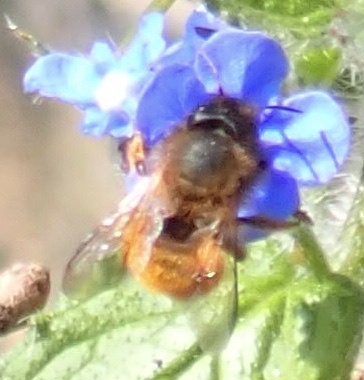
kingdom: Animalia
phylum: Arthropoda
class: Insecta
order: Hymenoptera
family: Megachilidae
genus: Osmia
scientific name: Osmia bicornis
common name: Red mason bee
